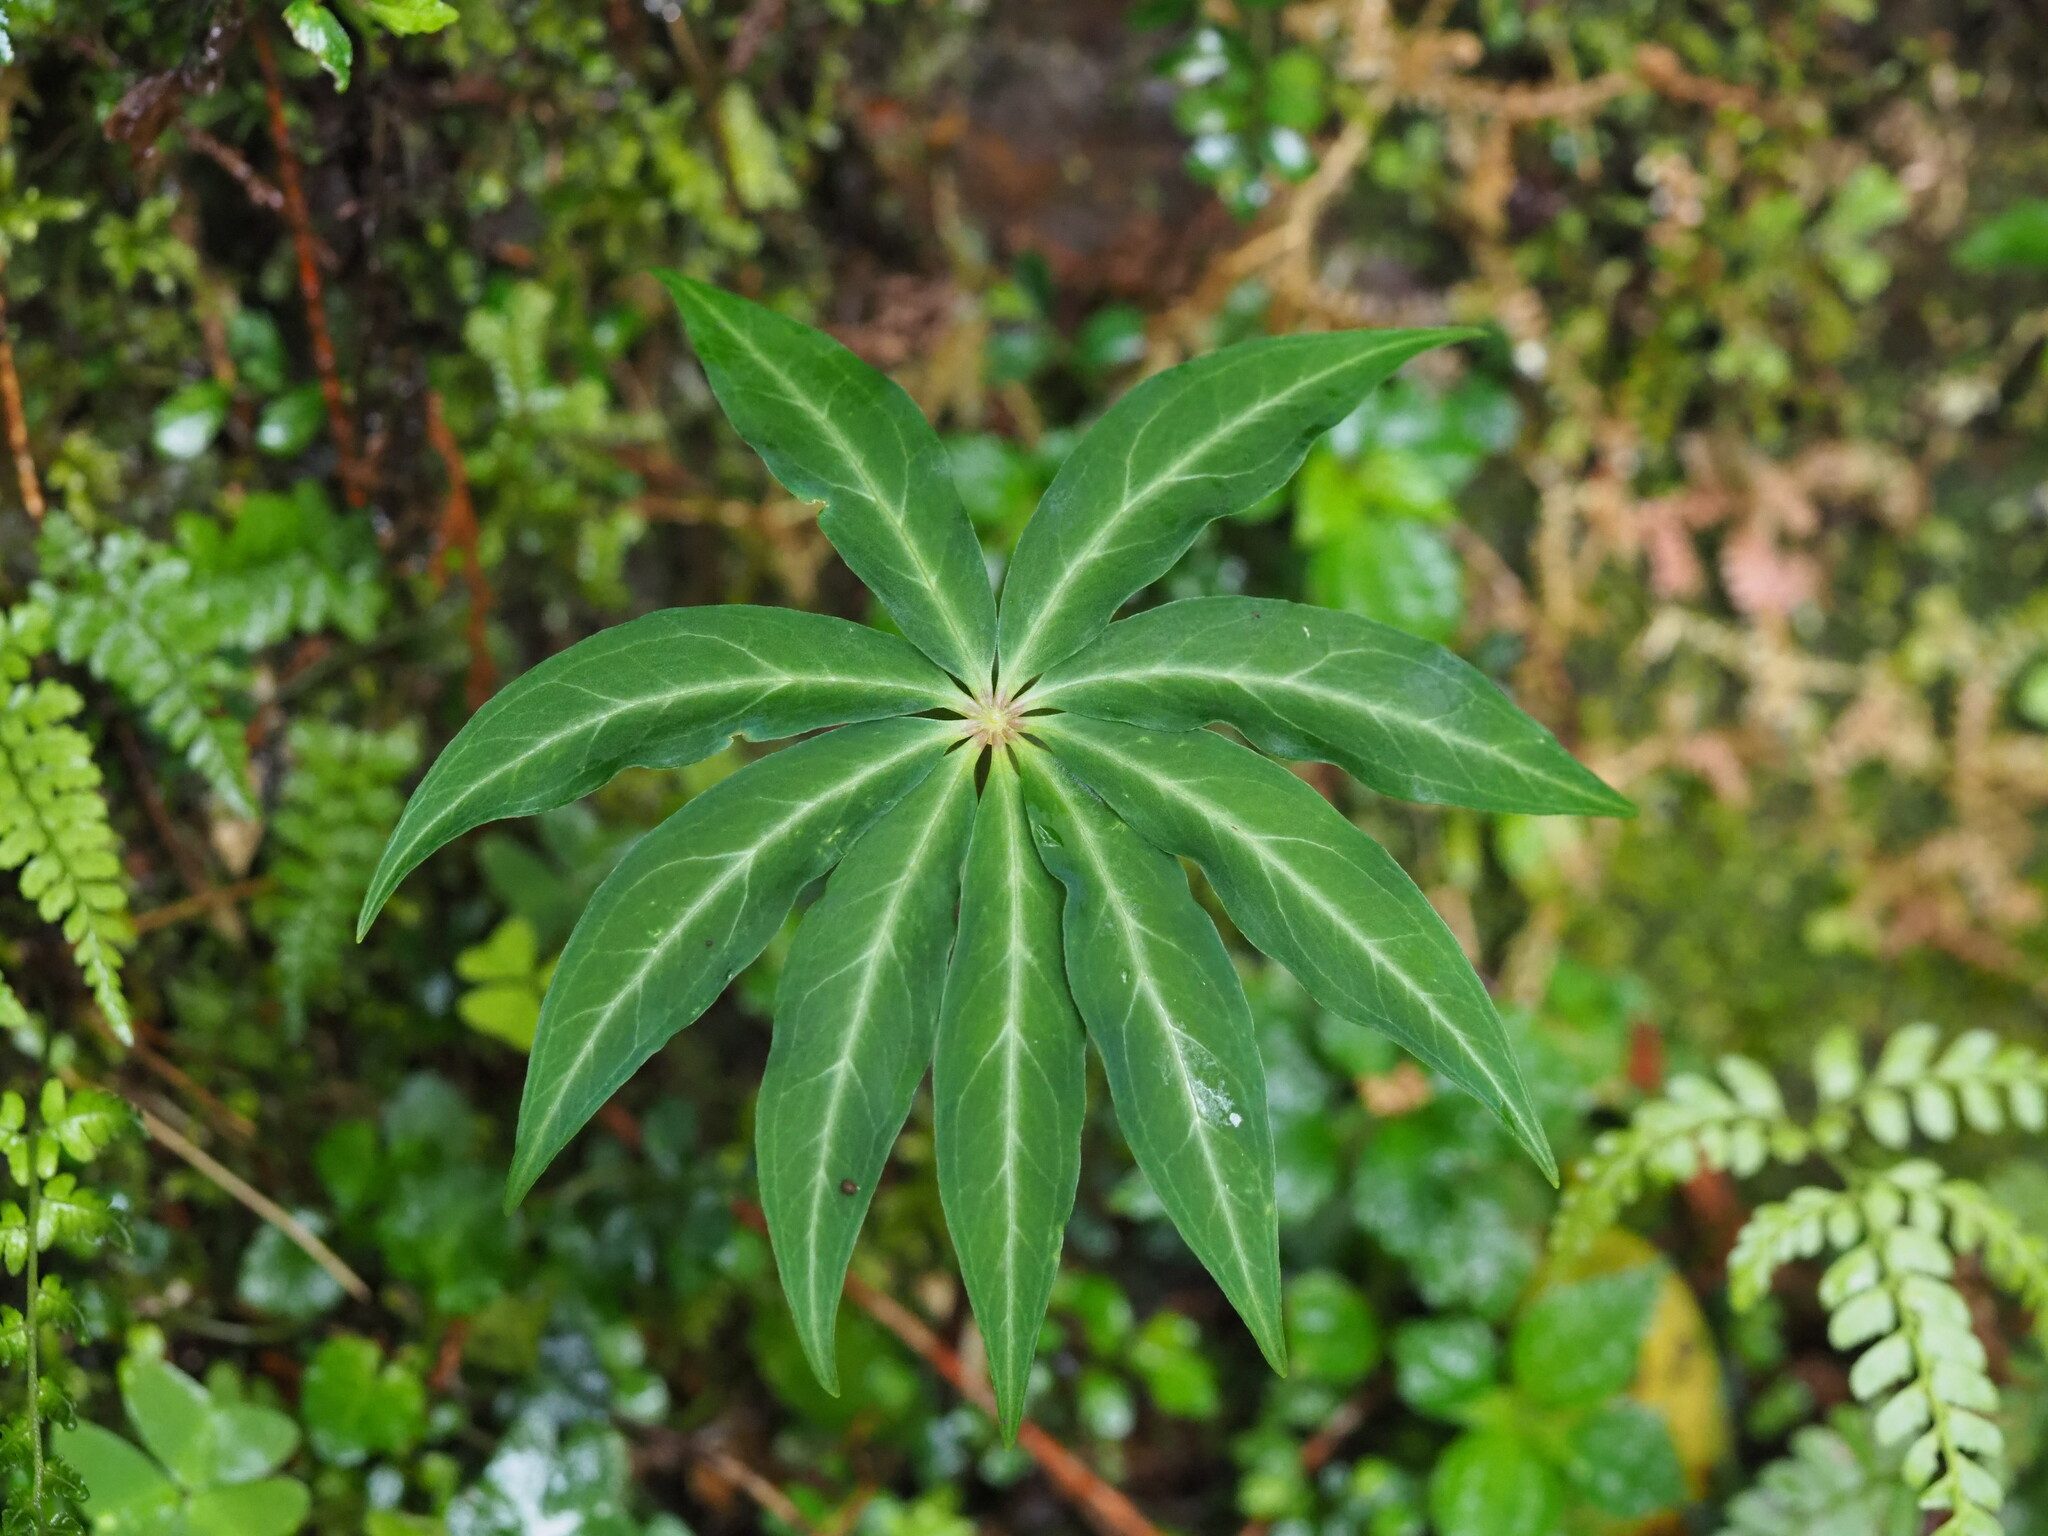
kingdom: Plantae
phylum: Tracheophyta
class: Liliopsida
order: Liliales
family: Melanthiaceae
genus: Paris
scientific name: Paris polyphylla
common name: Love apple
